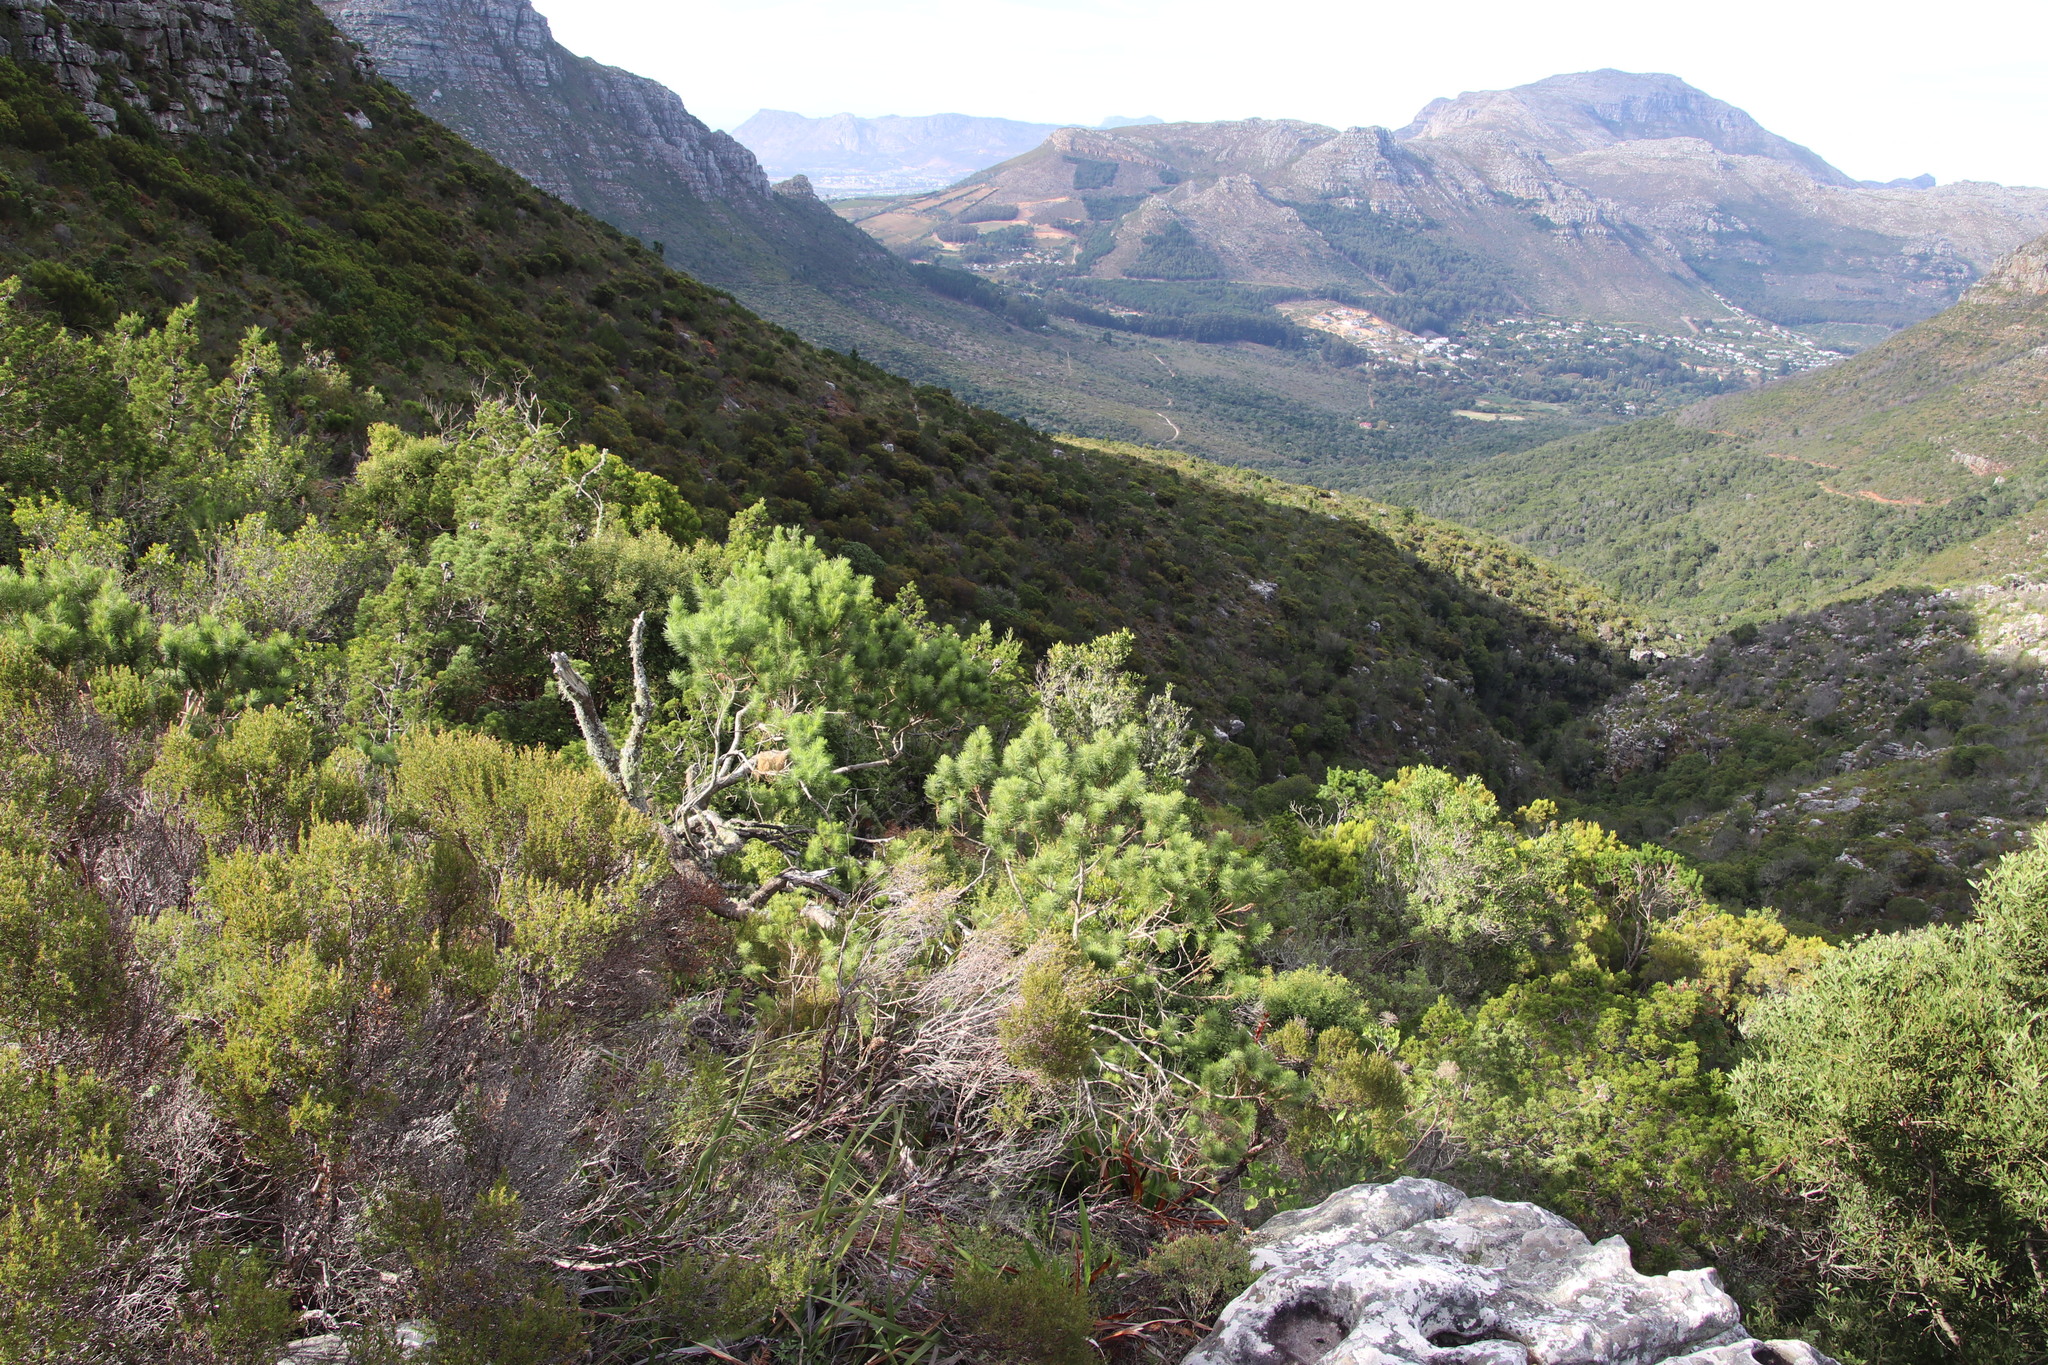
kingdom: Plantae
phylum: Tracheophyta
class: Magnoliopsida
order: Fabales
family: Fabaceae
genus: Psoralea
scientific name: Psoralea pinnata
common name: African scurfpea
